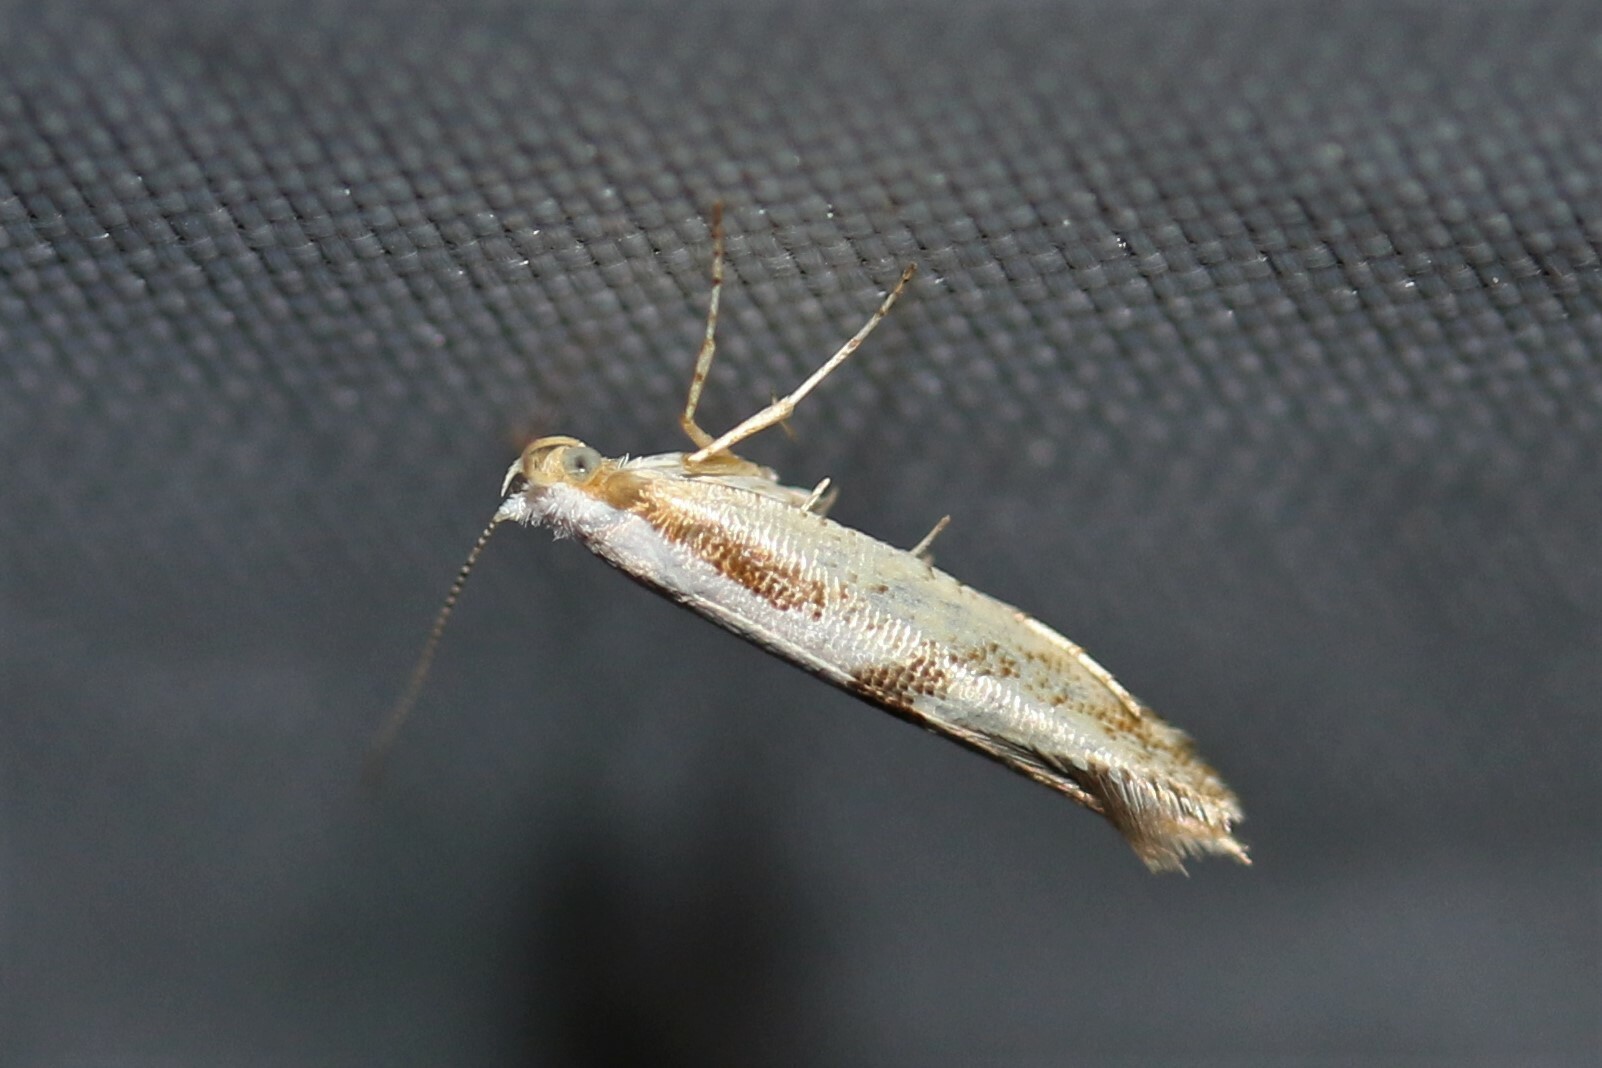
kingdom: Animalia
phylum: Arthropoda
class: Insecta
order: Lepidoptera
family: Argyresthiidae
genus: Argyresthia
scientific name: Argyresthia bonnetella
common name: Hawthorn argent
